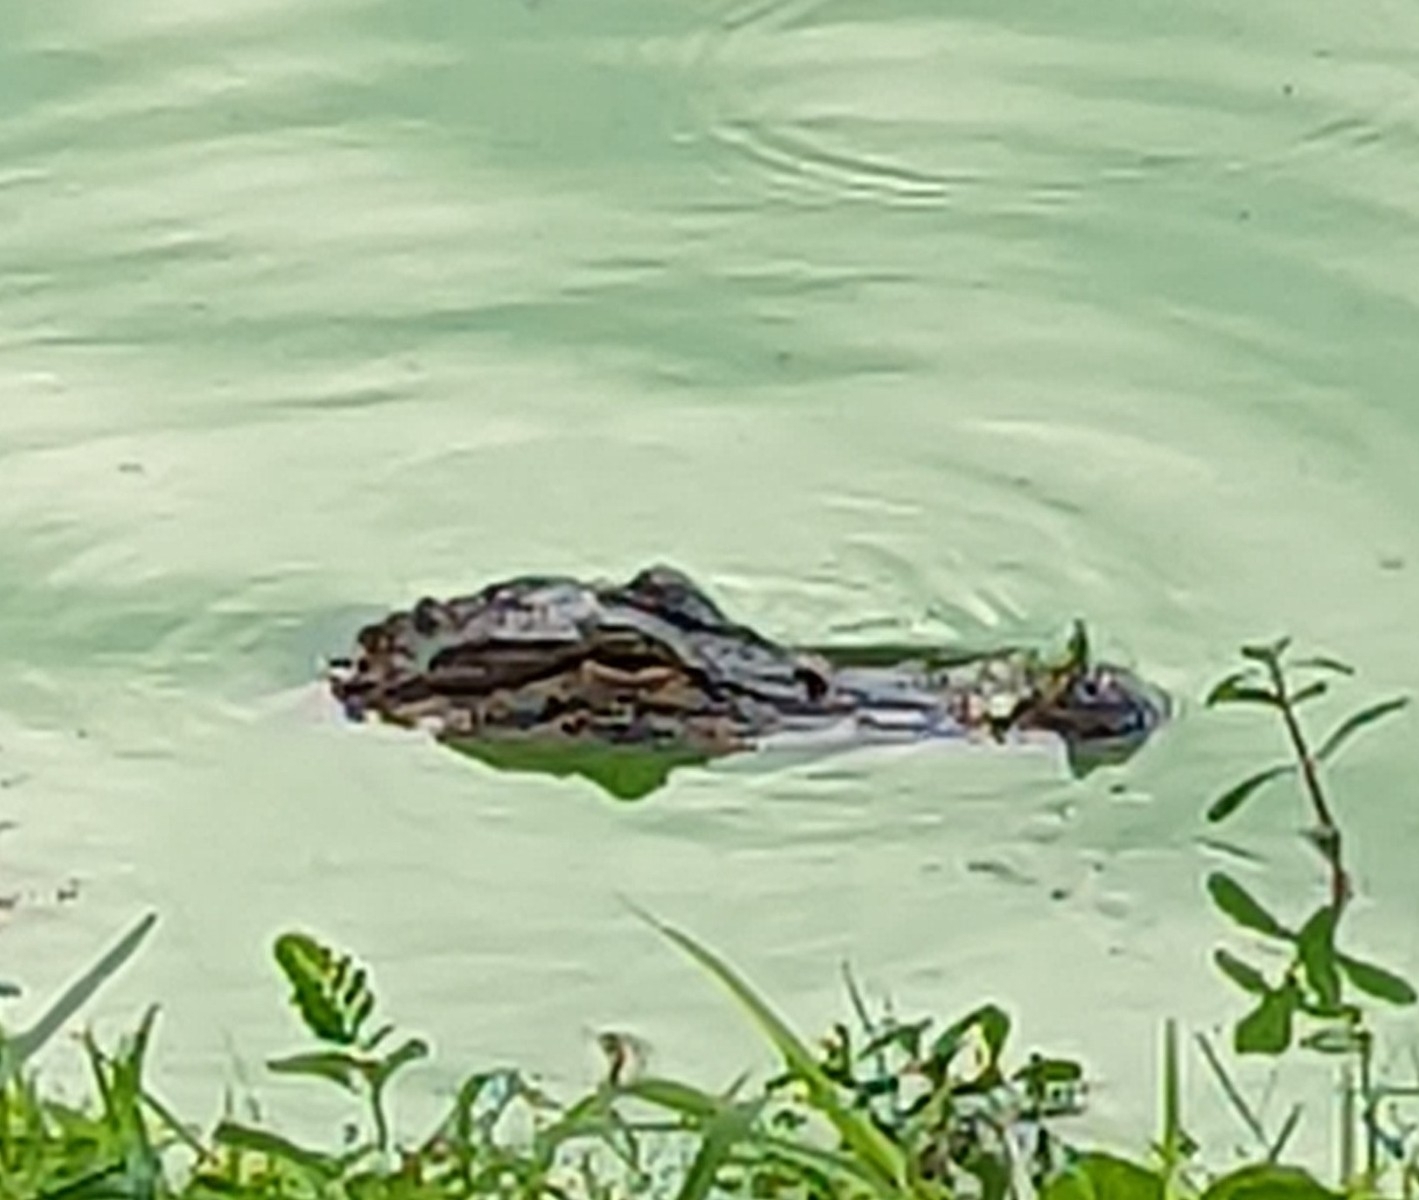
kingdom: Animalia
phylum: Chordata
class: Crocodylia
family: Alligatoridae
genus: Alligator
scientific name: Alligator mississippiensis
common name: American alligator
